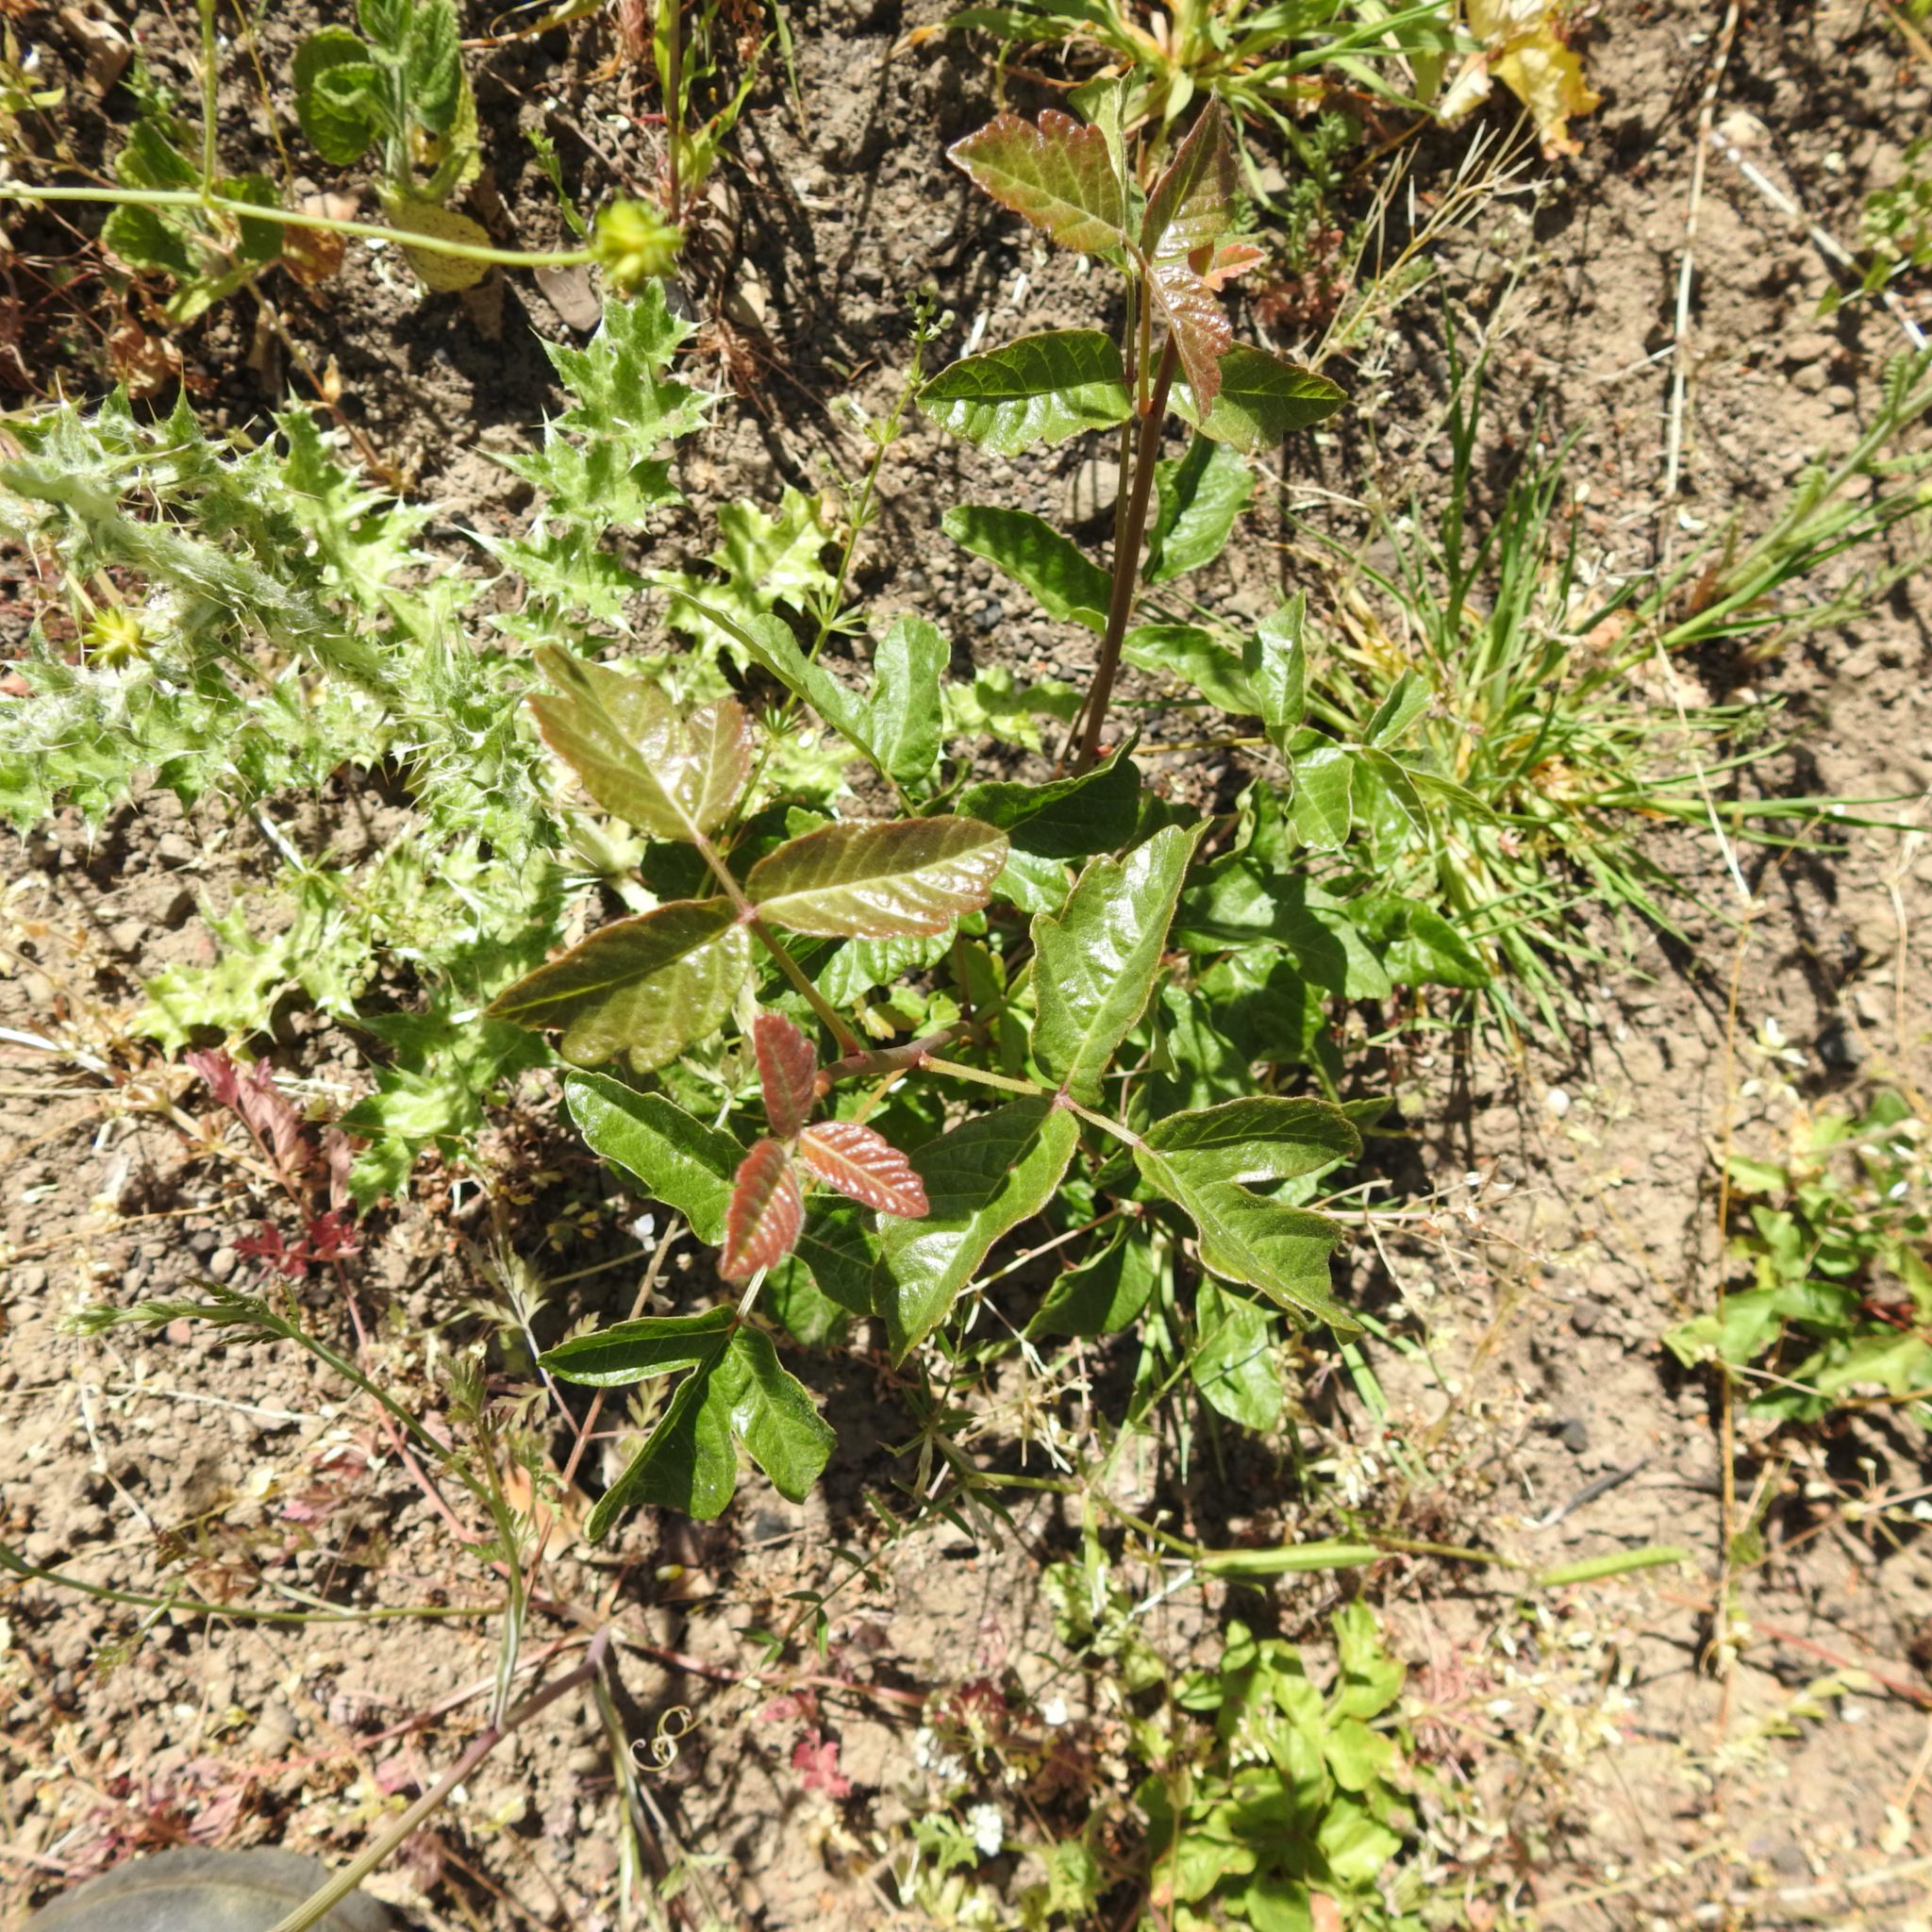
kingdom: Plantae
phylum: Tracheophyta
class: Magnoliopsida
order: Sapindales
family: Anacardiaceae
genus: Toxicodendron
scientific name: Toxicodendron diversilobum
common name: Pacific poison-oak
